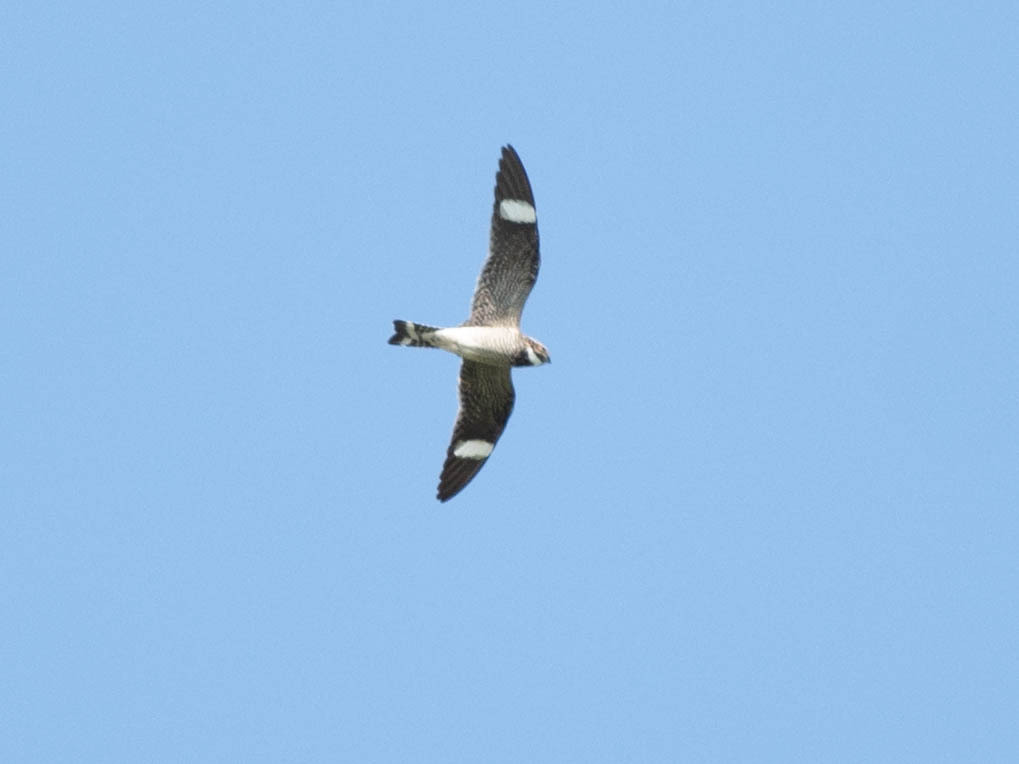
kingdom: Animalia
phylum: Chordata
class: Aves
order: Caprimulgiformes
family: Caprimulgidae
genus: Chordeiles
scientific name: Chordeiles minor
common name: Common nighthawk
